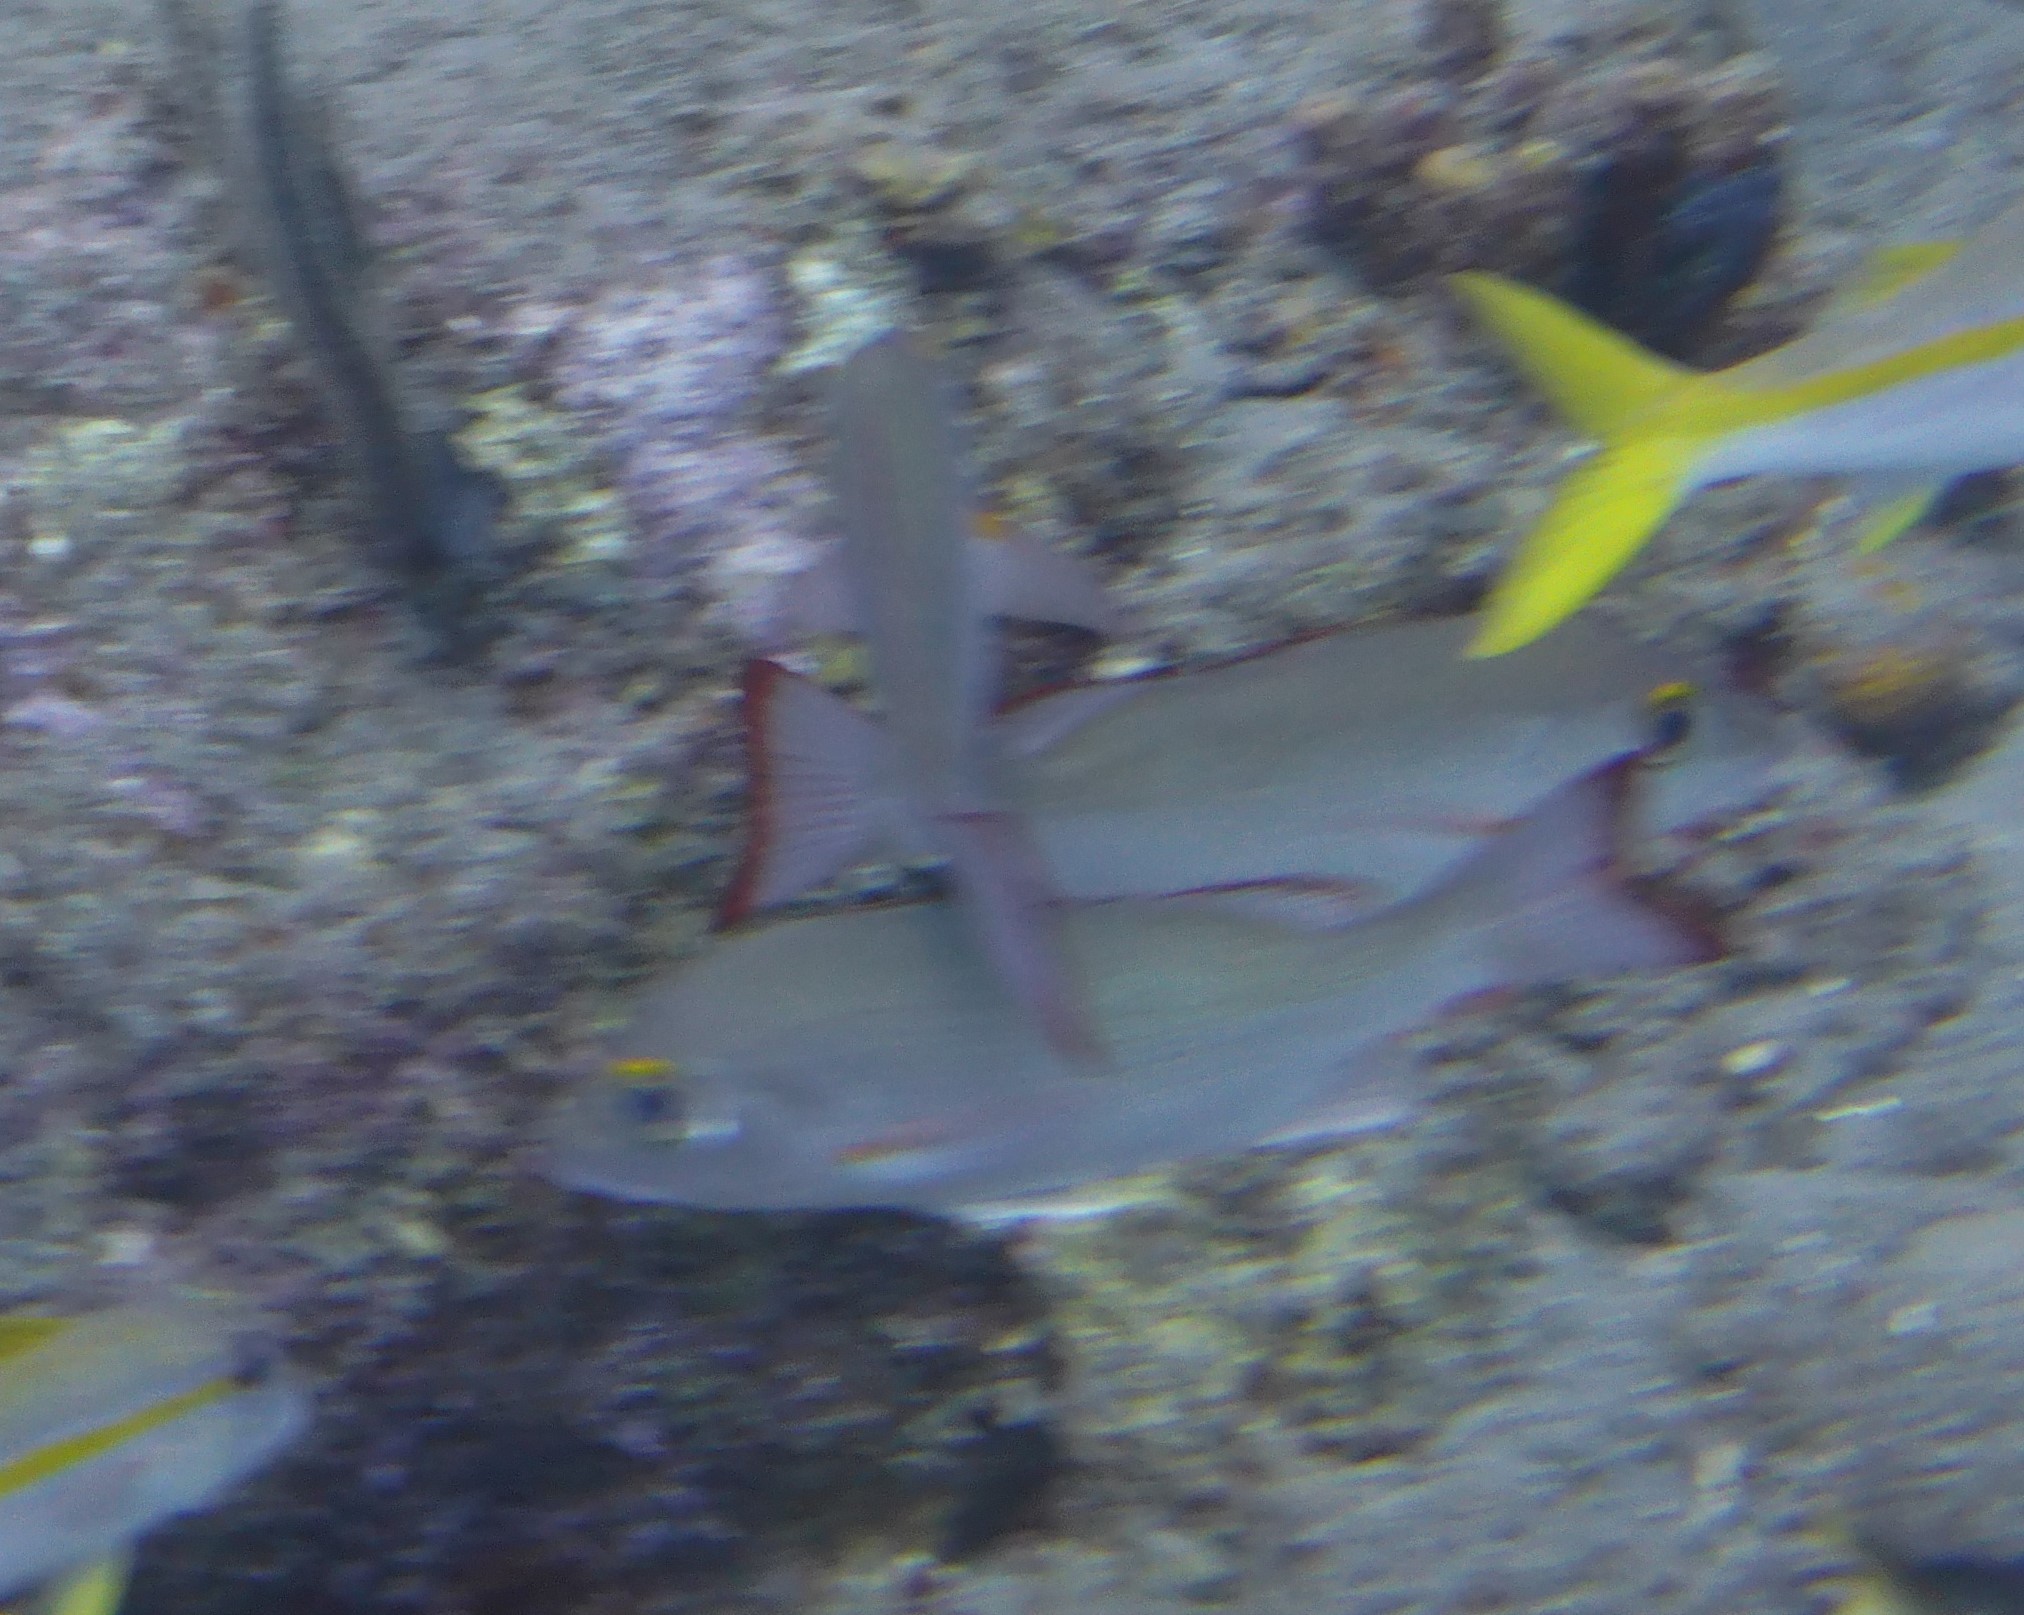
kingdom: Animalia
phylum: Chordata
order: Perciformes
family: Lutjanidae
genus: Lutjanus
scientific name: Lutjanus mahogoni
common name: Spot snapper
